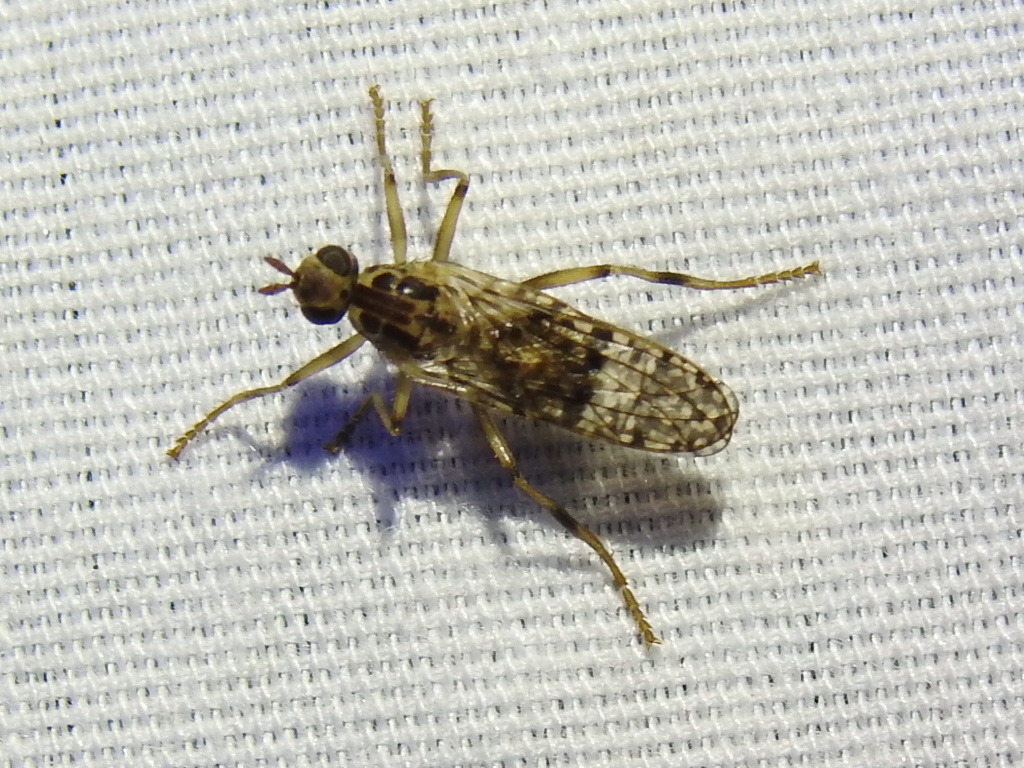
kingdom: Animalia
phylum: Arthropoda
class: Insecta
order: Diptera
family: Pyrgotidae
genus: Boreothrinax
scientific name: Boreothrinax
